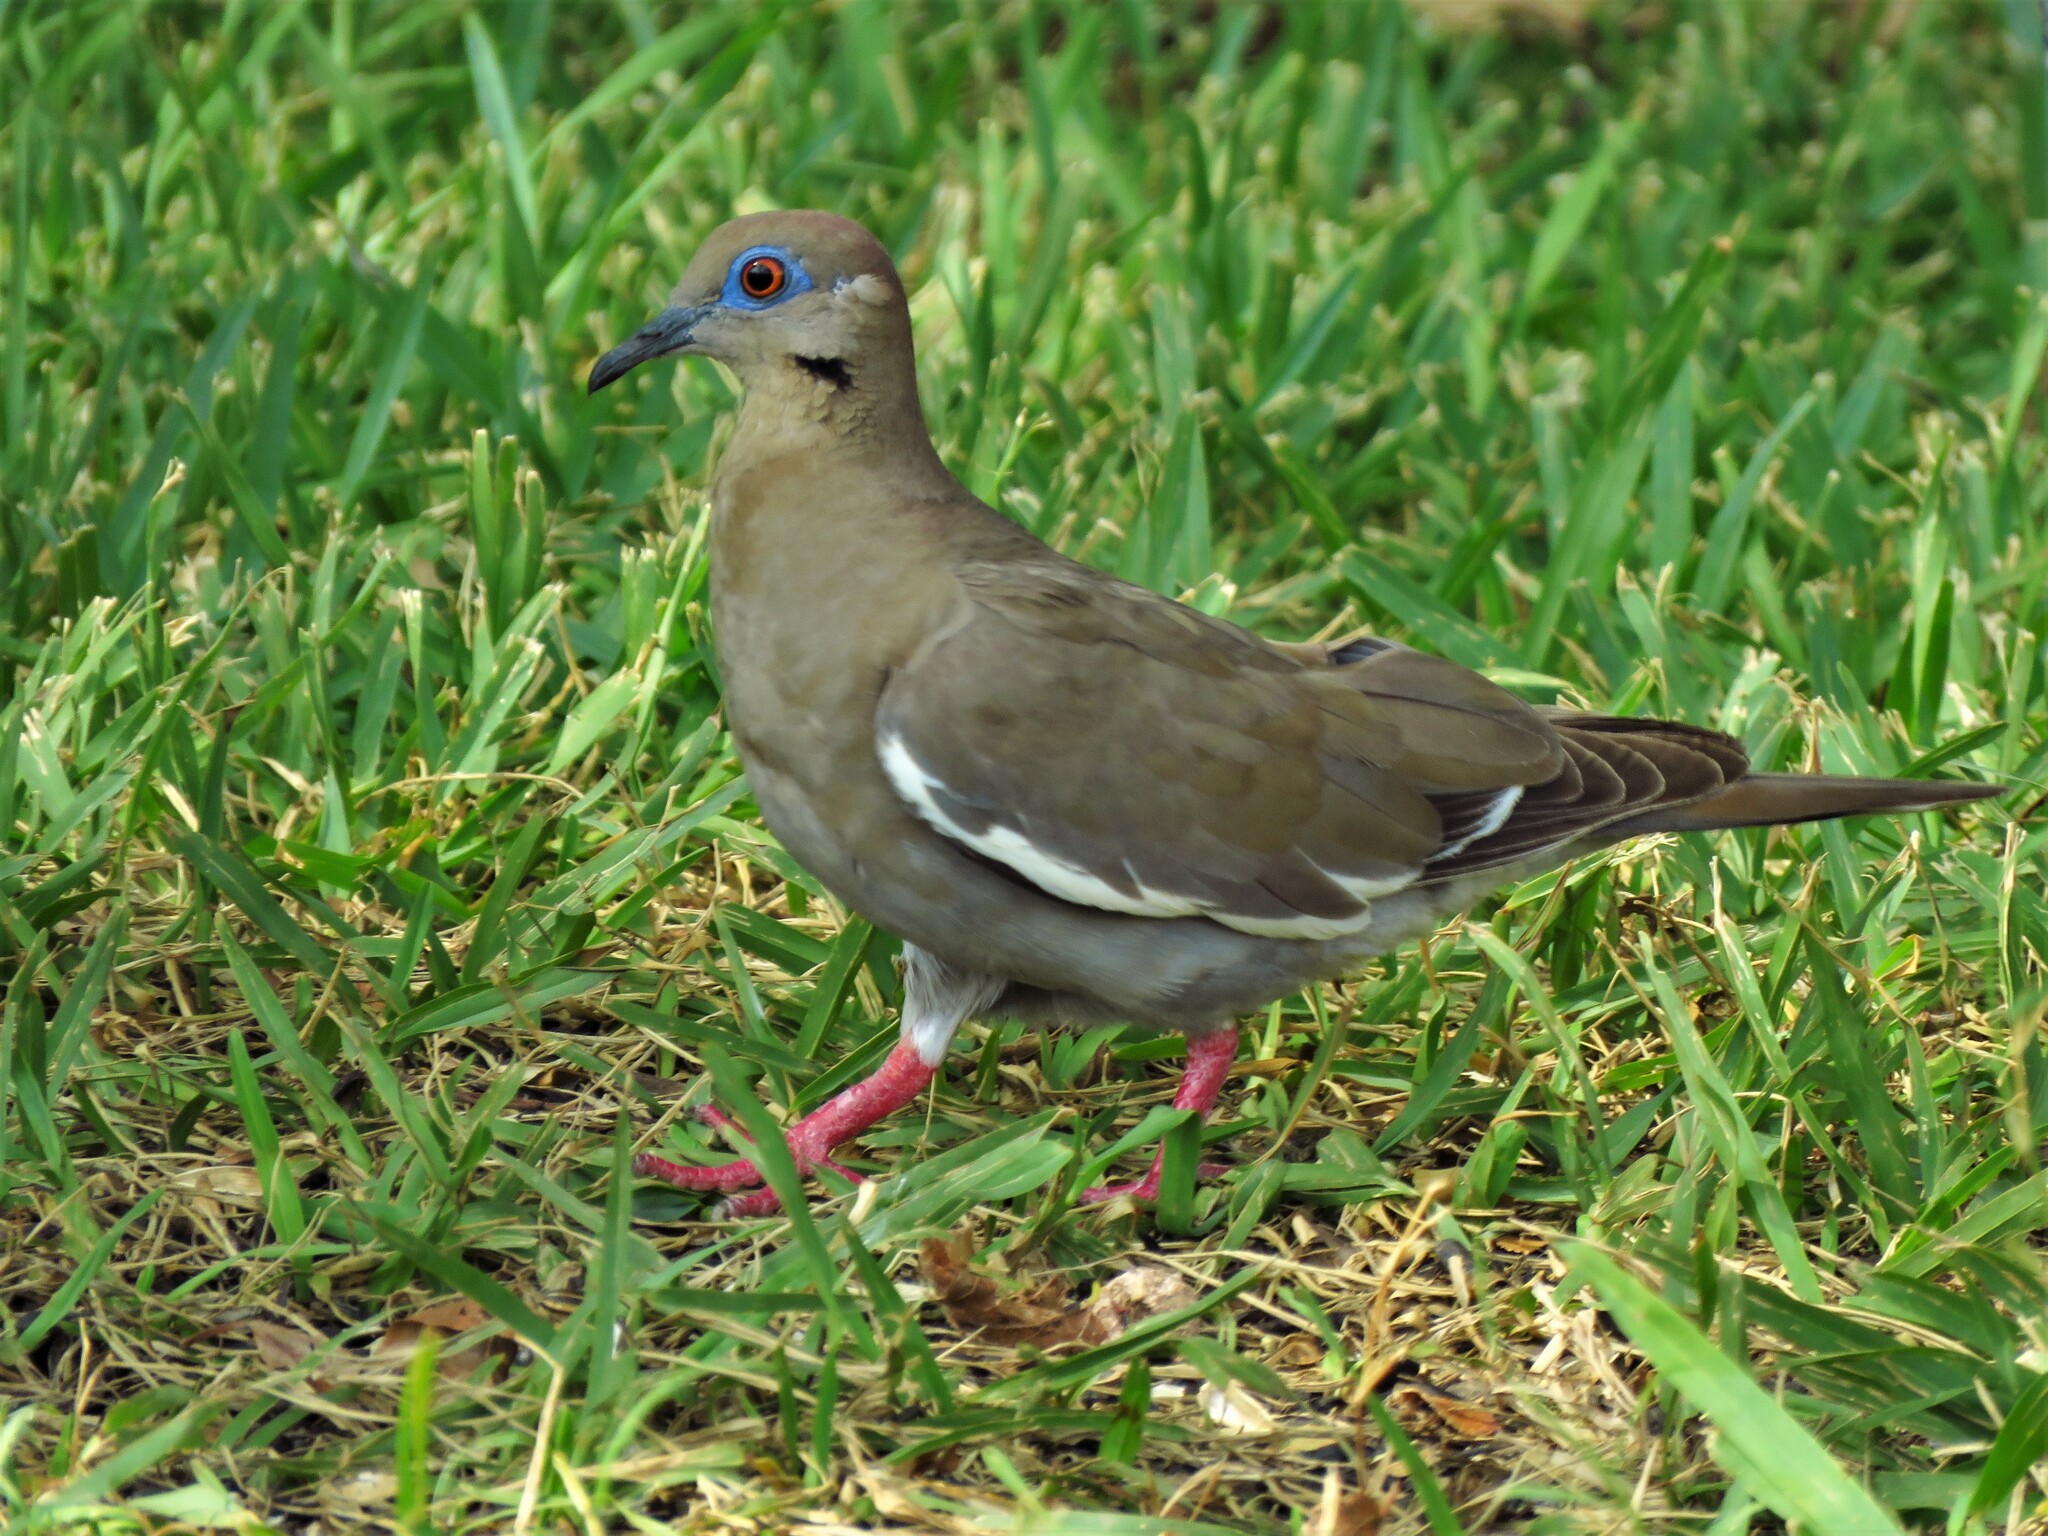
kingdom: Animalia
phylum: Chordata
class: Aves
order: Columbiformes
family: Columbidae
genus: Zenaida
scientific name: Zenaida asiatica
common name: White-winged dove
